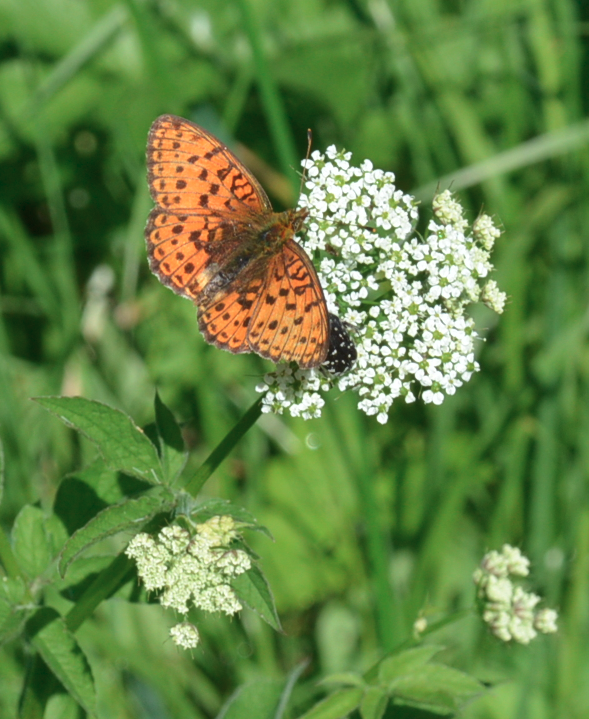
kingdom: Animalia
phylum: Arthropoda
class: Insecta
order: Lepidoptera
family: Nymphalidae
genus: Brenthis
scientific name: Brenthis ino
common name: Lesser marbled fritillary
